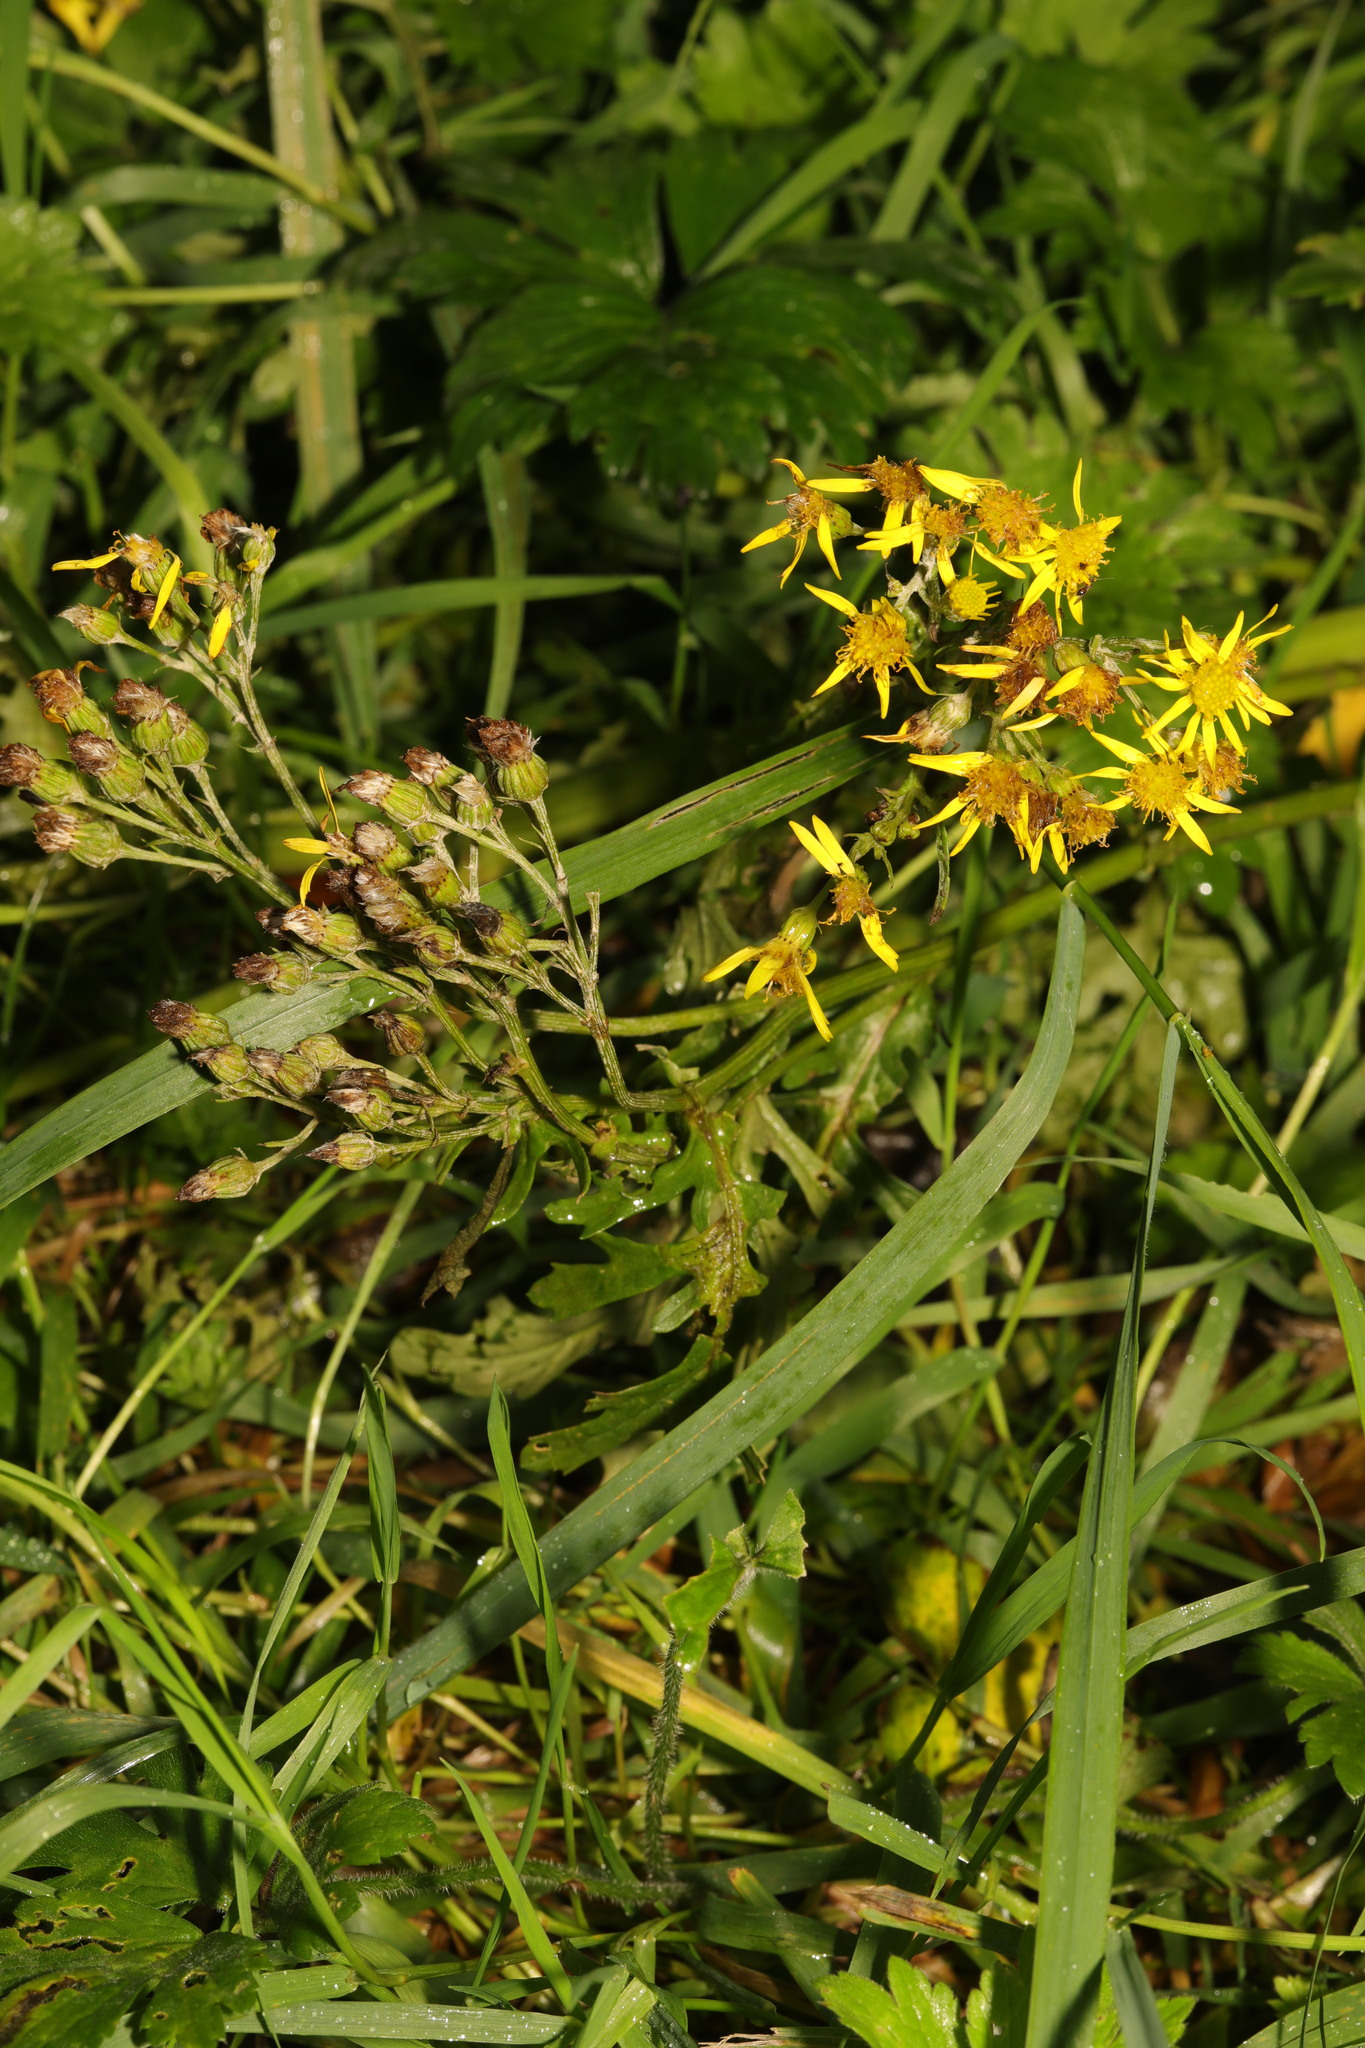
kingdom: Plantae
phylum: Tracheophyta
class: Magnoliopsida
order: Asterales
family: Asteraceae
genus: Jacobaea
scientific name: Jacobaea vulgaris
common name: Stinking willie
